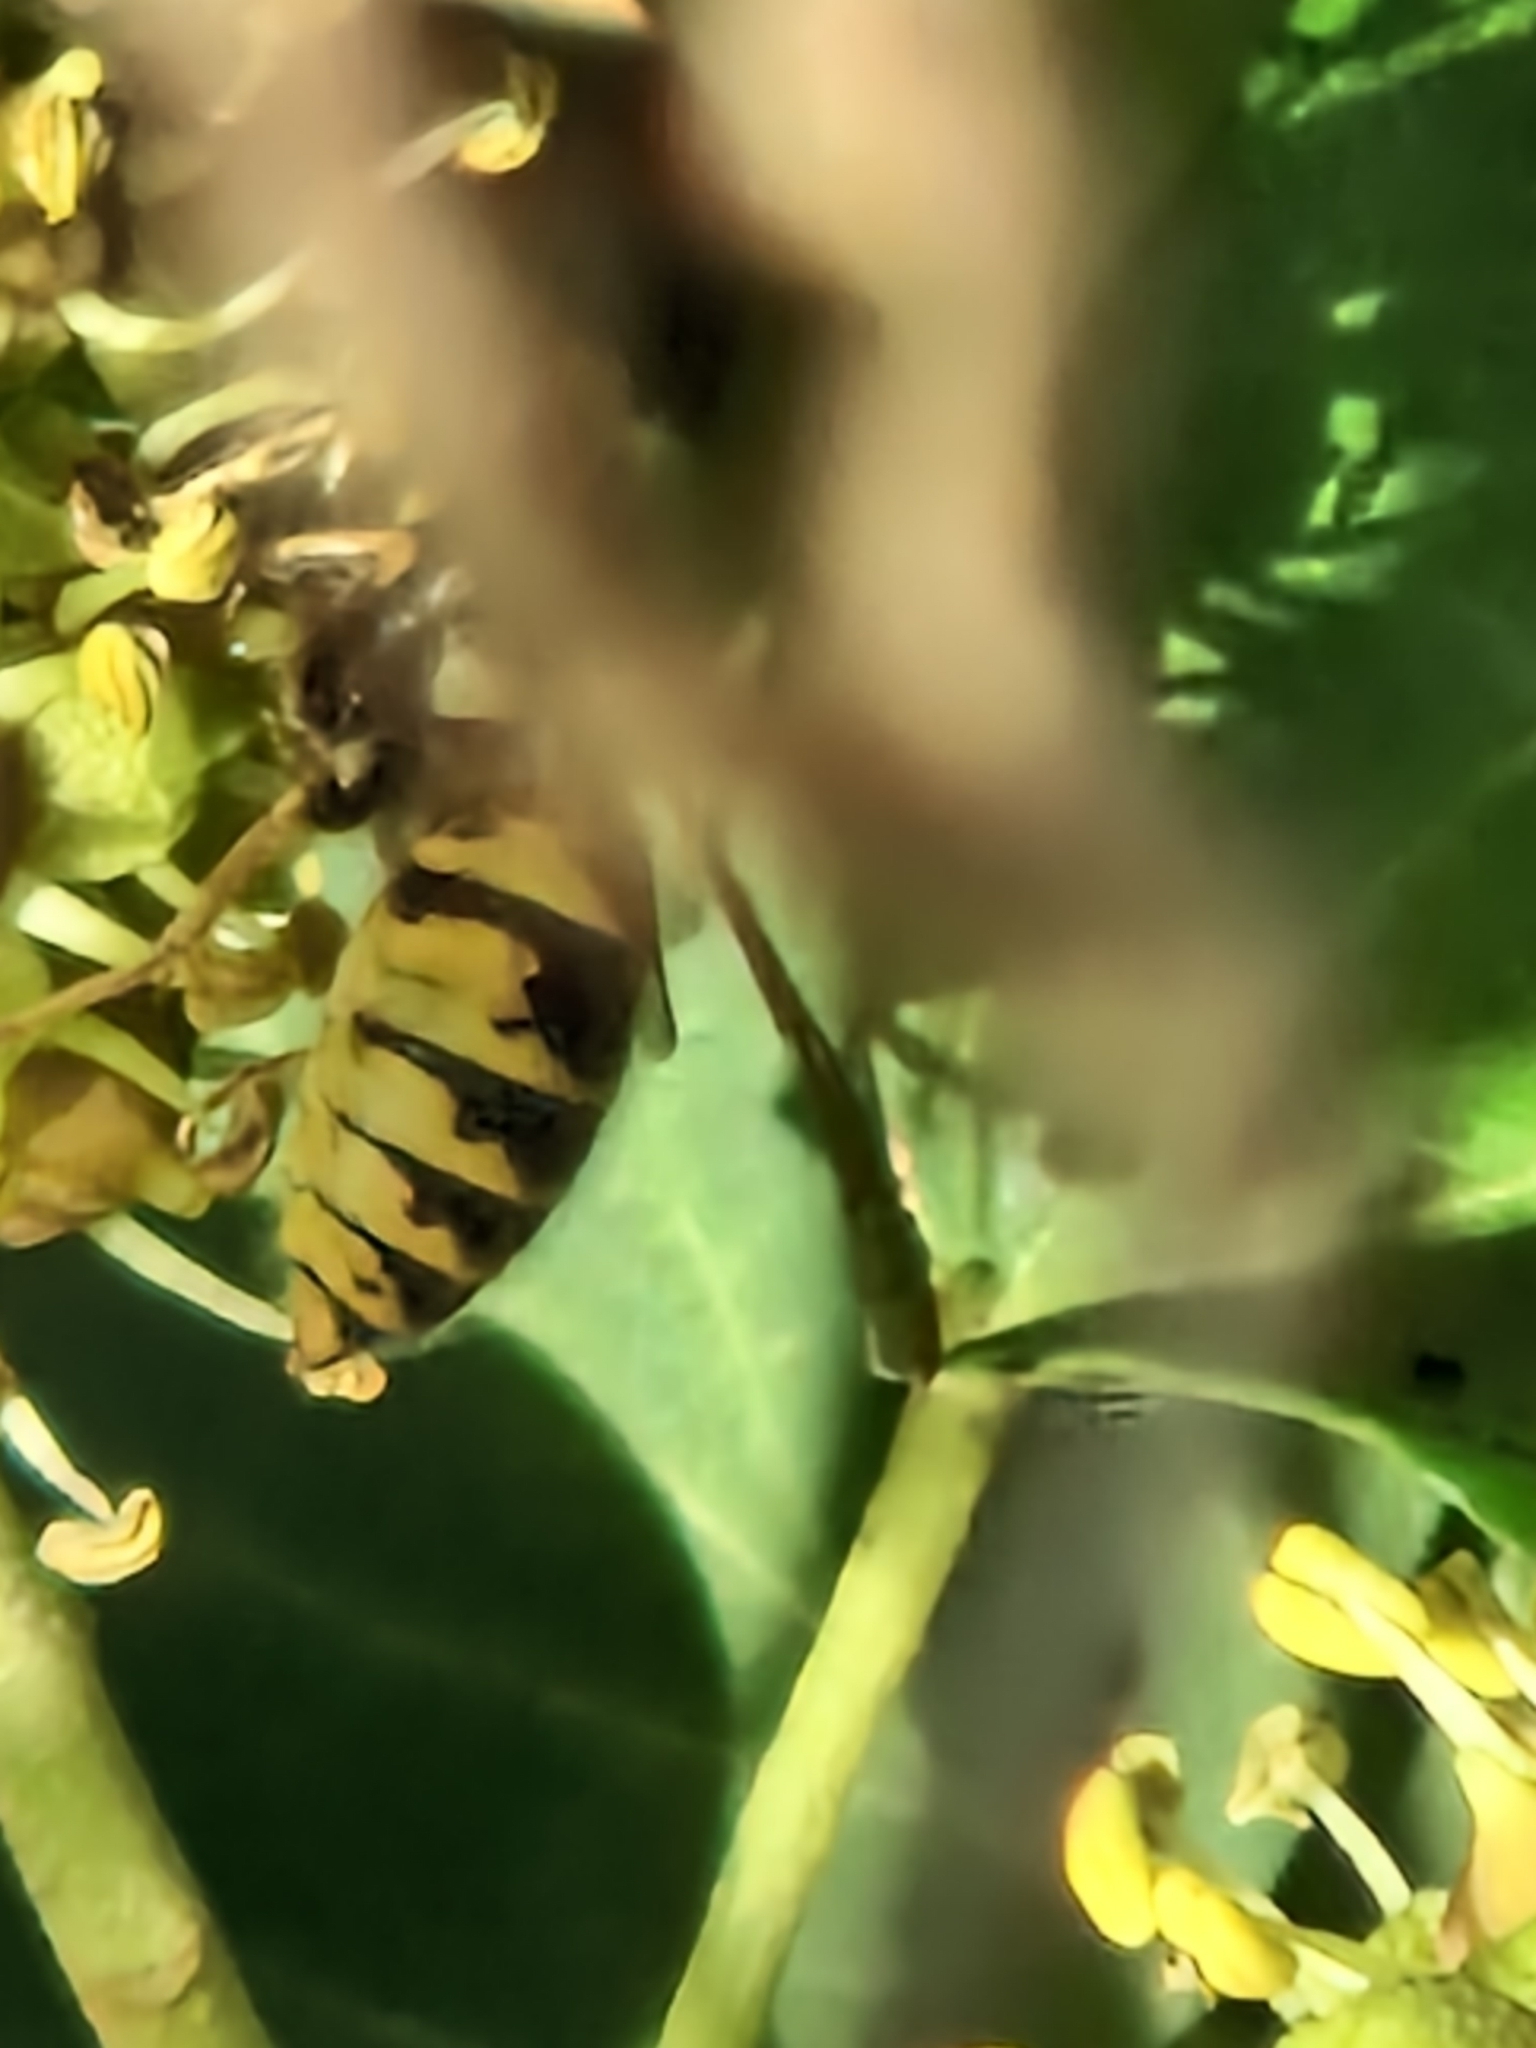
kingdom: Animalia
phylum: Arthropoda
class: Insecta
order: Hymenoptera
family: Vespidae
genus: Vespula
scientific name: Vespula vulgaris
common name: Common wasp
